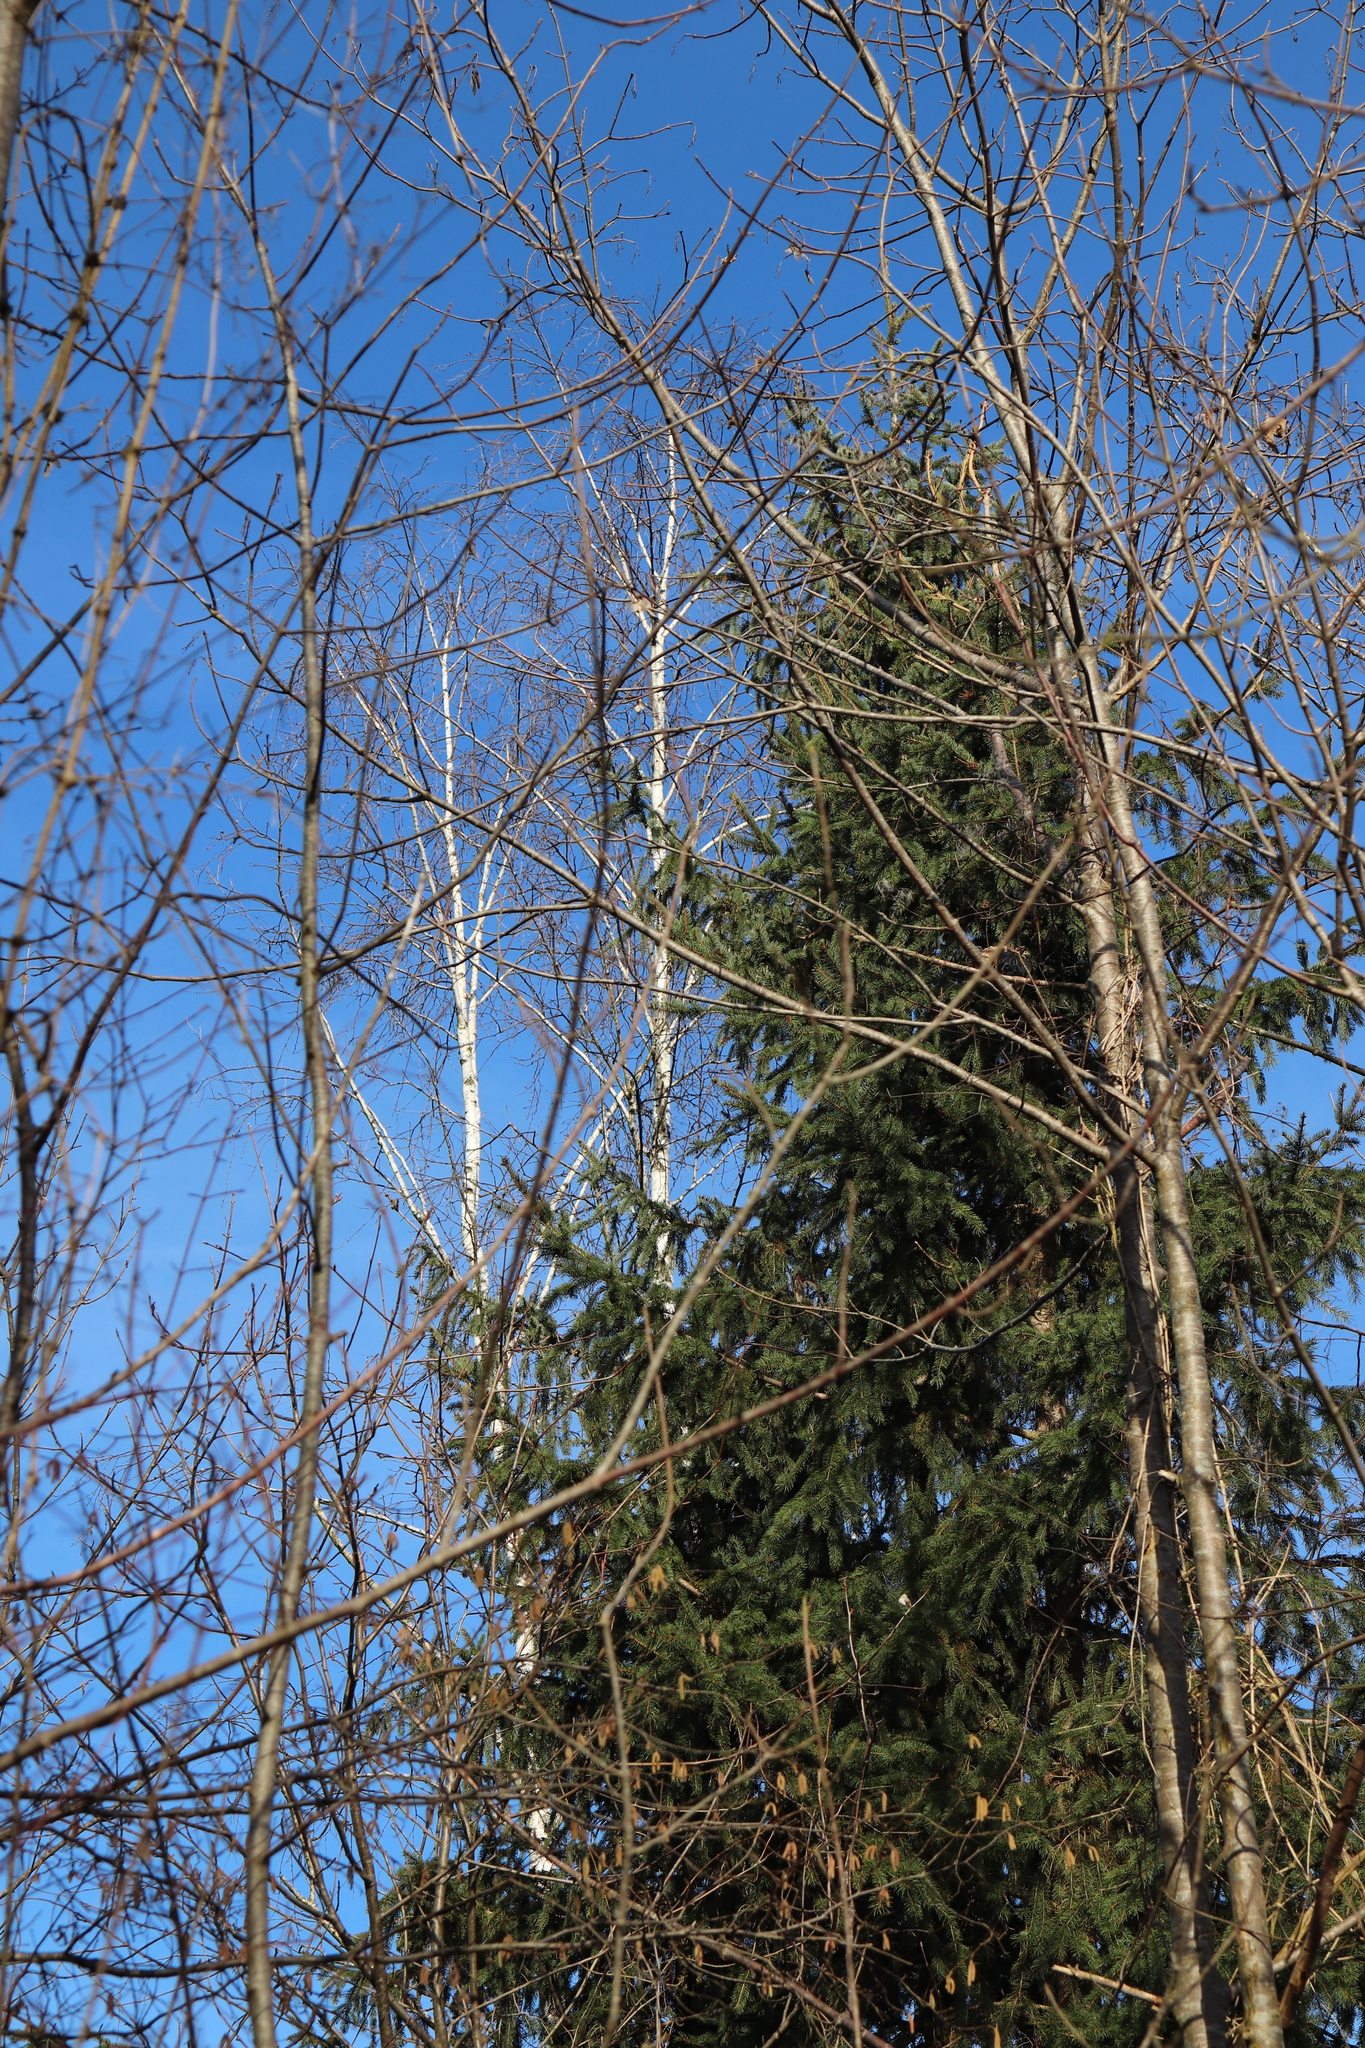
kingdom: Plantae
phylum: Tracheophyta
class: Magnoliopsida
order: Fagales
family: Betulaceae
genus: Betula
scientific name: Betula pendula
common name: Silver birch
